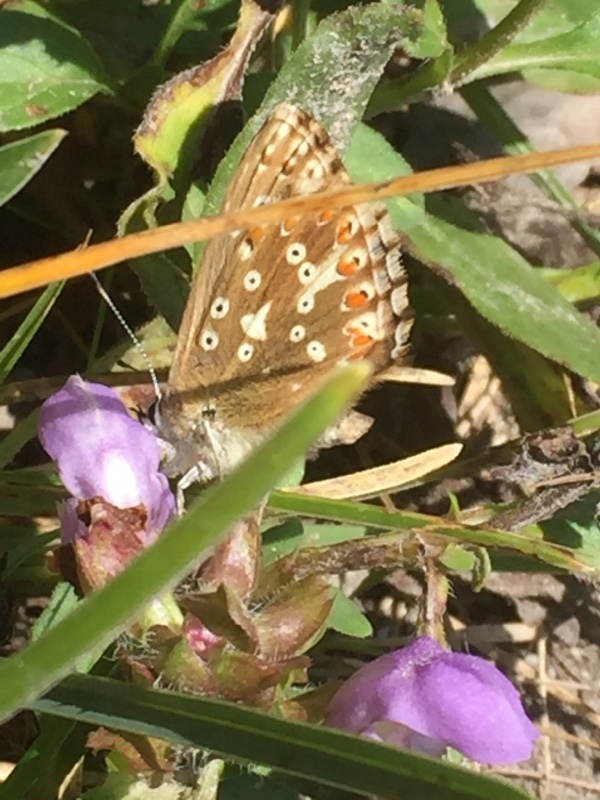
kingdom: Animalia
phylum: Arthropoda
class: Insecta
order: Lepidoptera
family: Lycaenidae
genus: Lysandra
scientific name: Lysandra coridon
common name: Chalkhill blue
